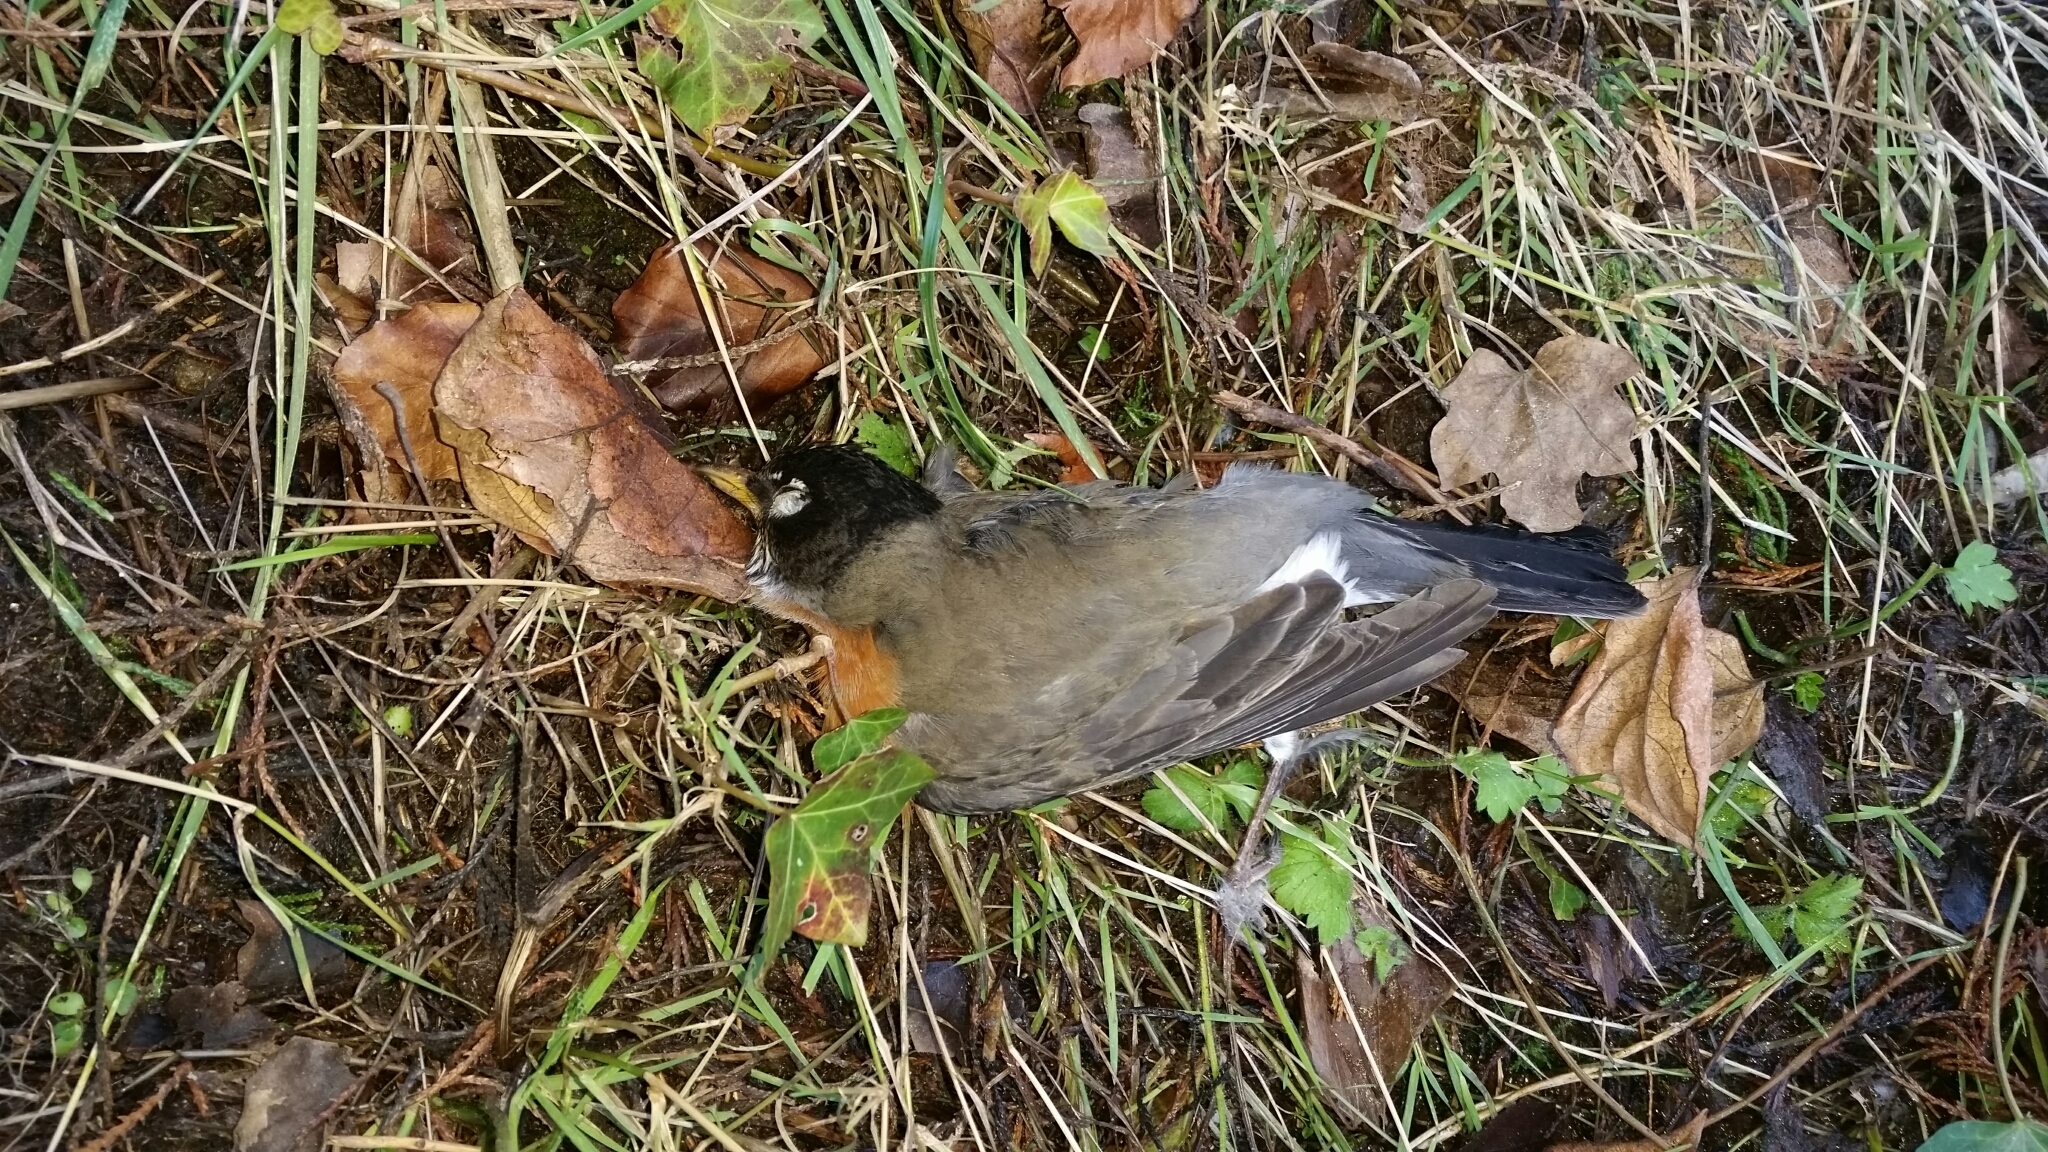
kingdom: Animalia
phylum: Chordata
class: Aves
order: Passeriformes
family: Turdidae
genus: Turdus
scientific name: Turdus migratorius
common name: American robin
